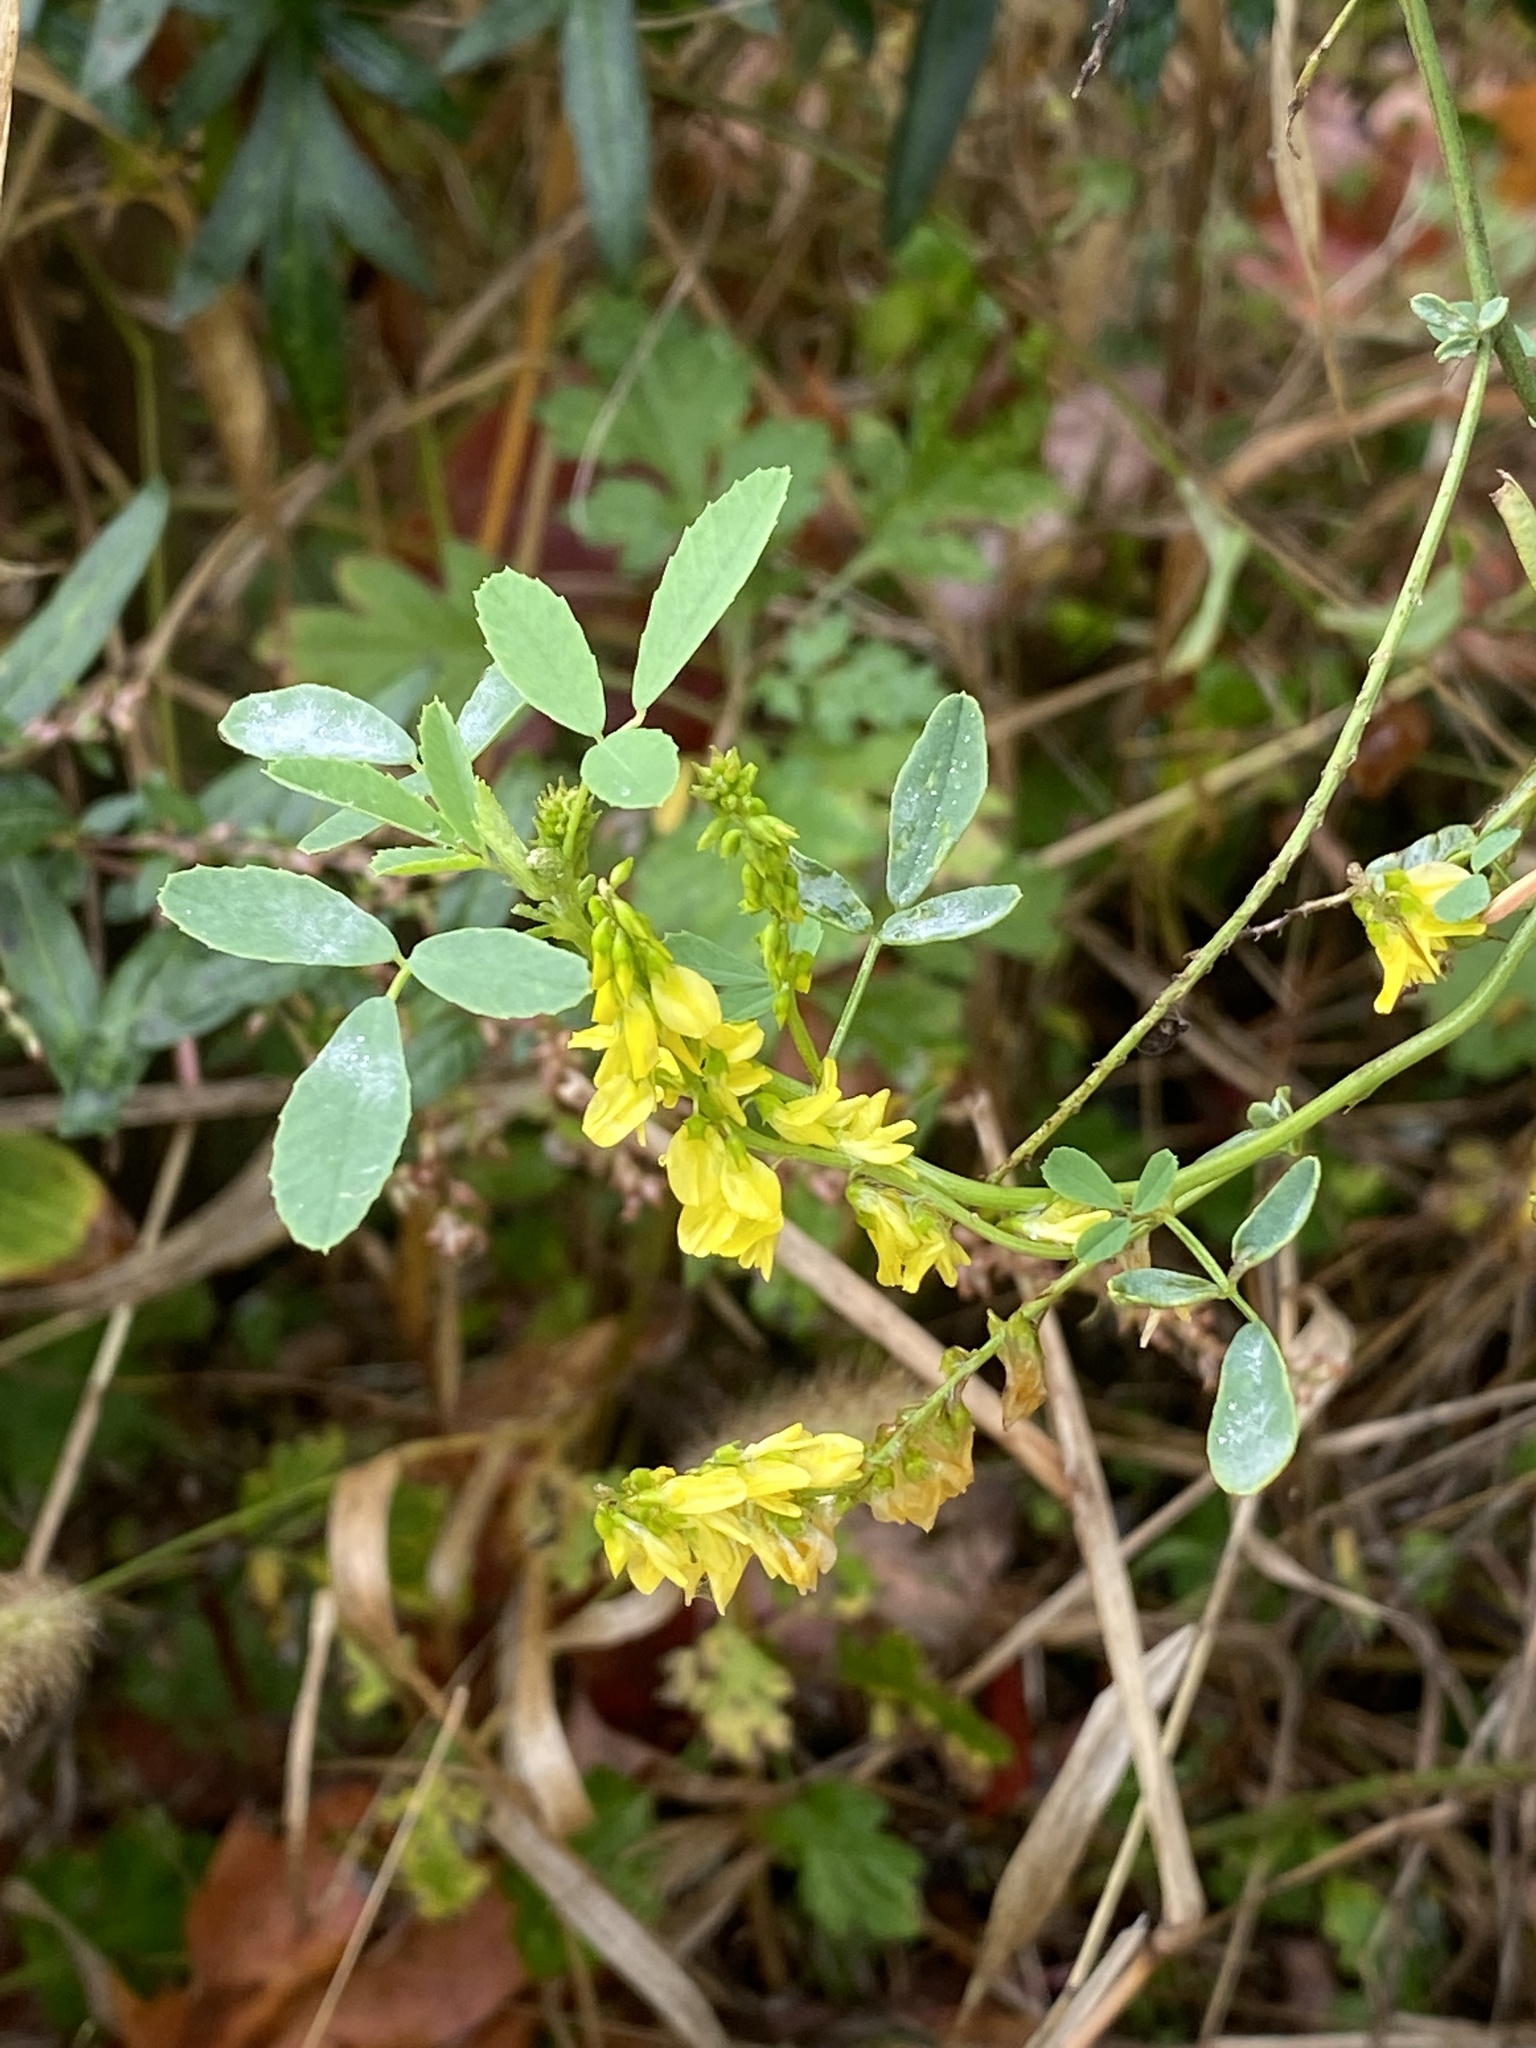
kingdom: Plantae
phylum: Tracheophyta
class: Magnoliopsida
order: Fabales
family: Fabaceae
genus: Melilotus
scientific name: Melilotus officinalis
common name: Sweetclover
